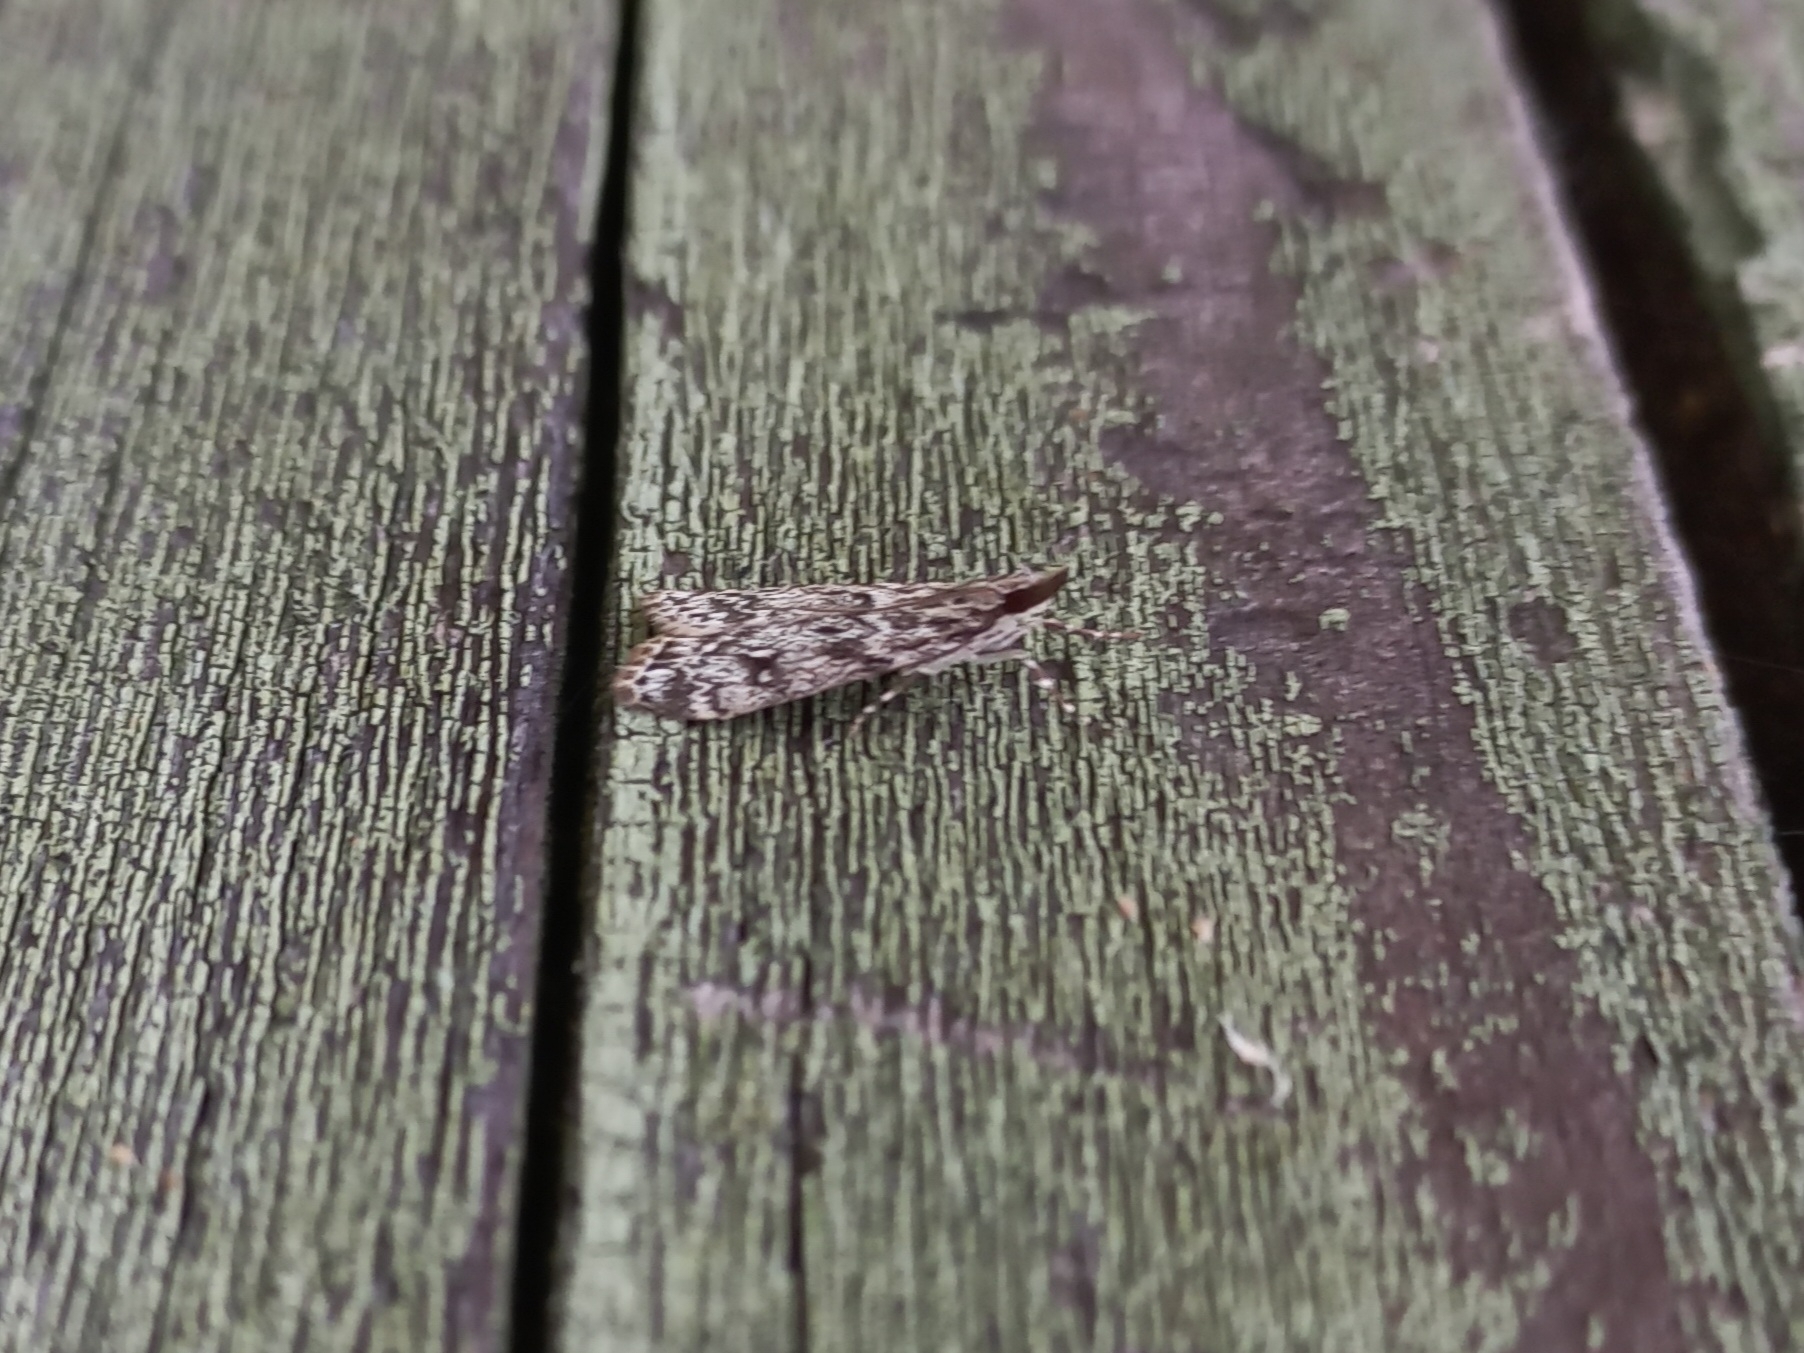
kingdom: Animalia
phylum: Arthropoda
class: Insecta
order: Lepidoptera
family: Crambidae
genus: Eudonia
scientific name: Eudonia truncicolella
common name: Ground-moss grey
